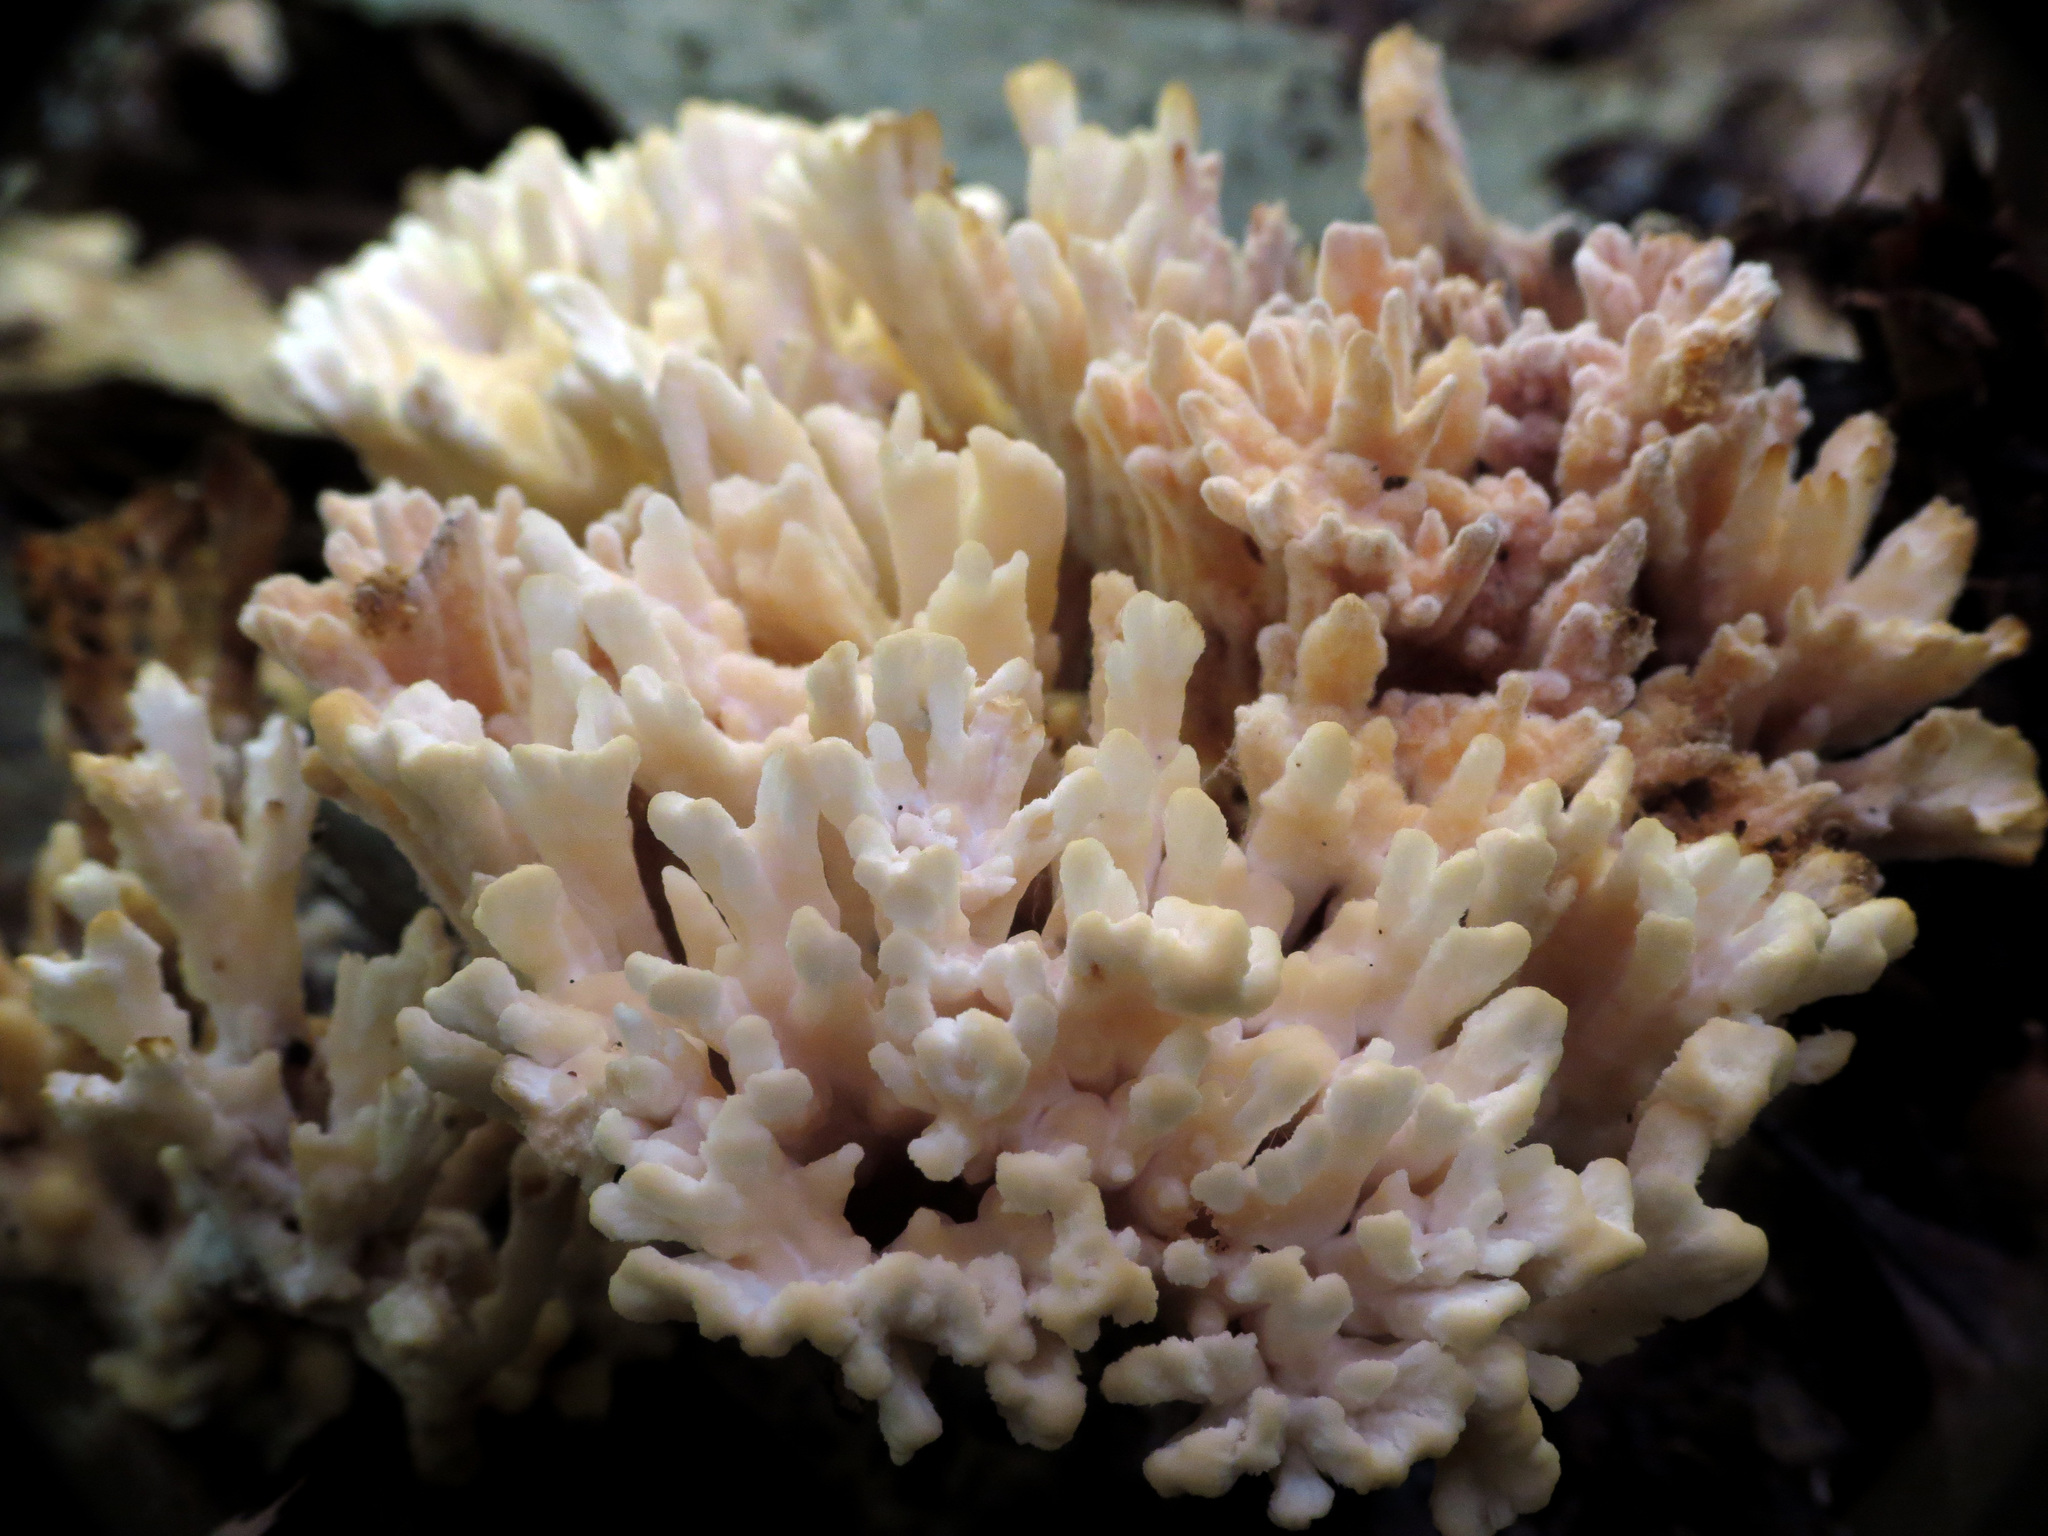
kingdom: Fungi
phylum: Basidiomycota
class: Agaricomycetes
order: Sebacinales
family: Sebacinaceae
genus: Sebacina
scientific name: Sebacina schweinitzii
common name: Jellied false coral fungus
